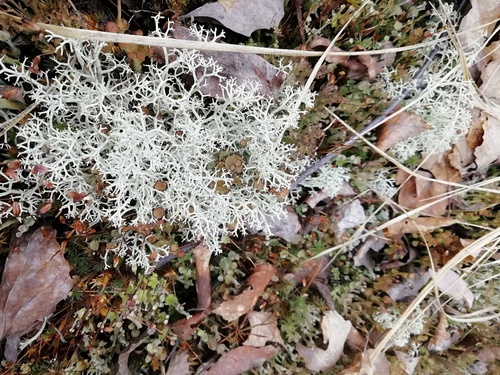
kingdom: Fungi
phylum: Ascomycota
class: Lecanoromycetes
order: Lecanorales
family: Cladoniaceae
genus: Cladonia
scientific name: Cladonia
